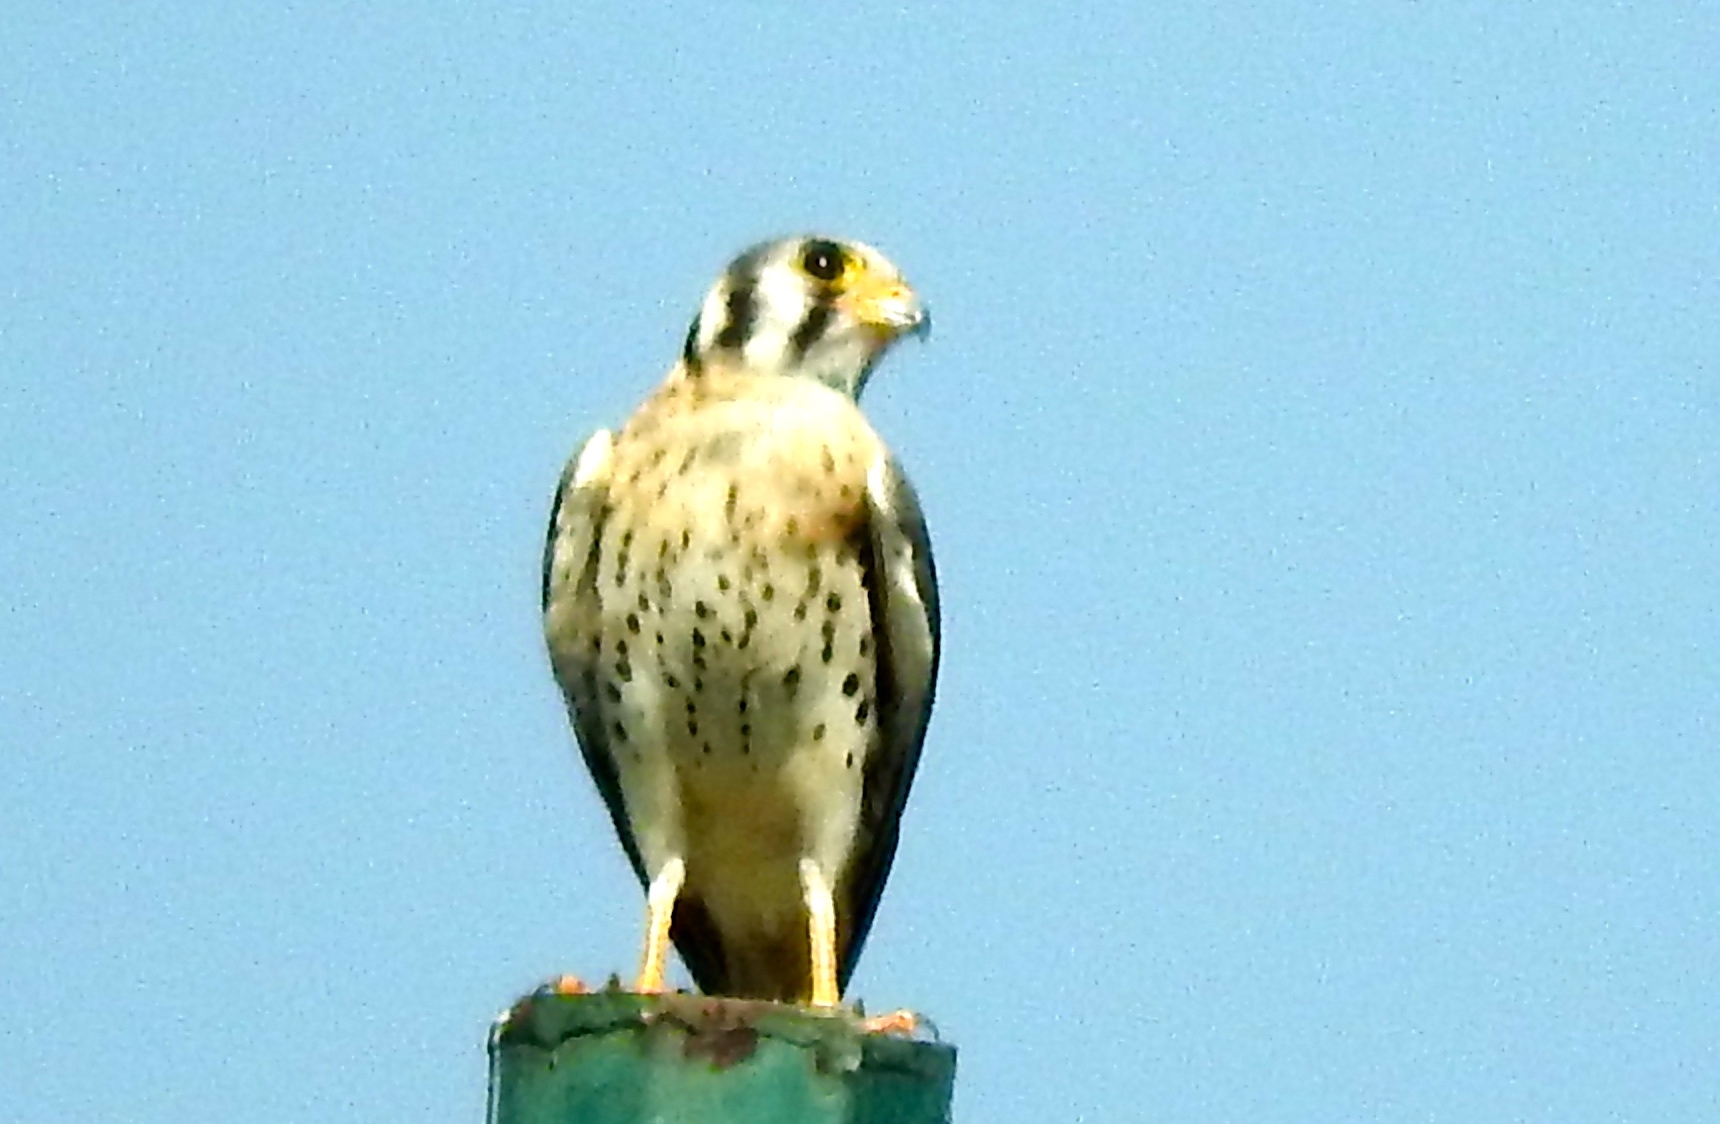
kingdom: Animalia
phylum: Chordata
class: Aves
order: Falconiformes
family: Falconidae
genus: Falco
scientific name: Falco sparverius
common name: American kestrel
